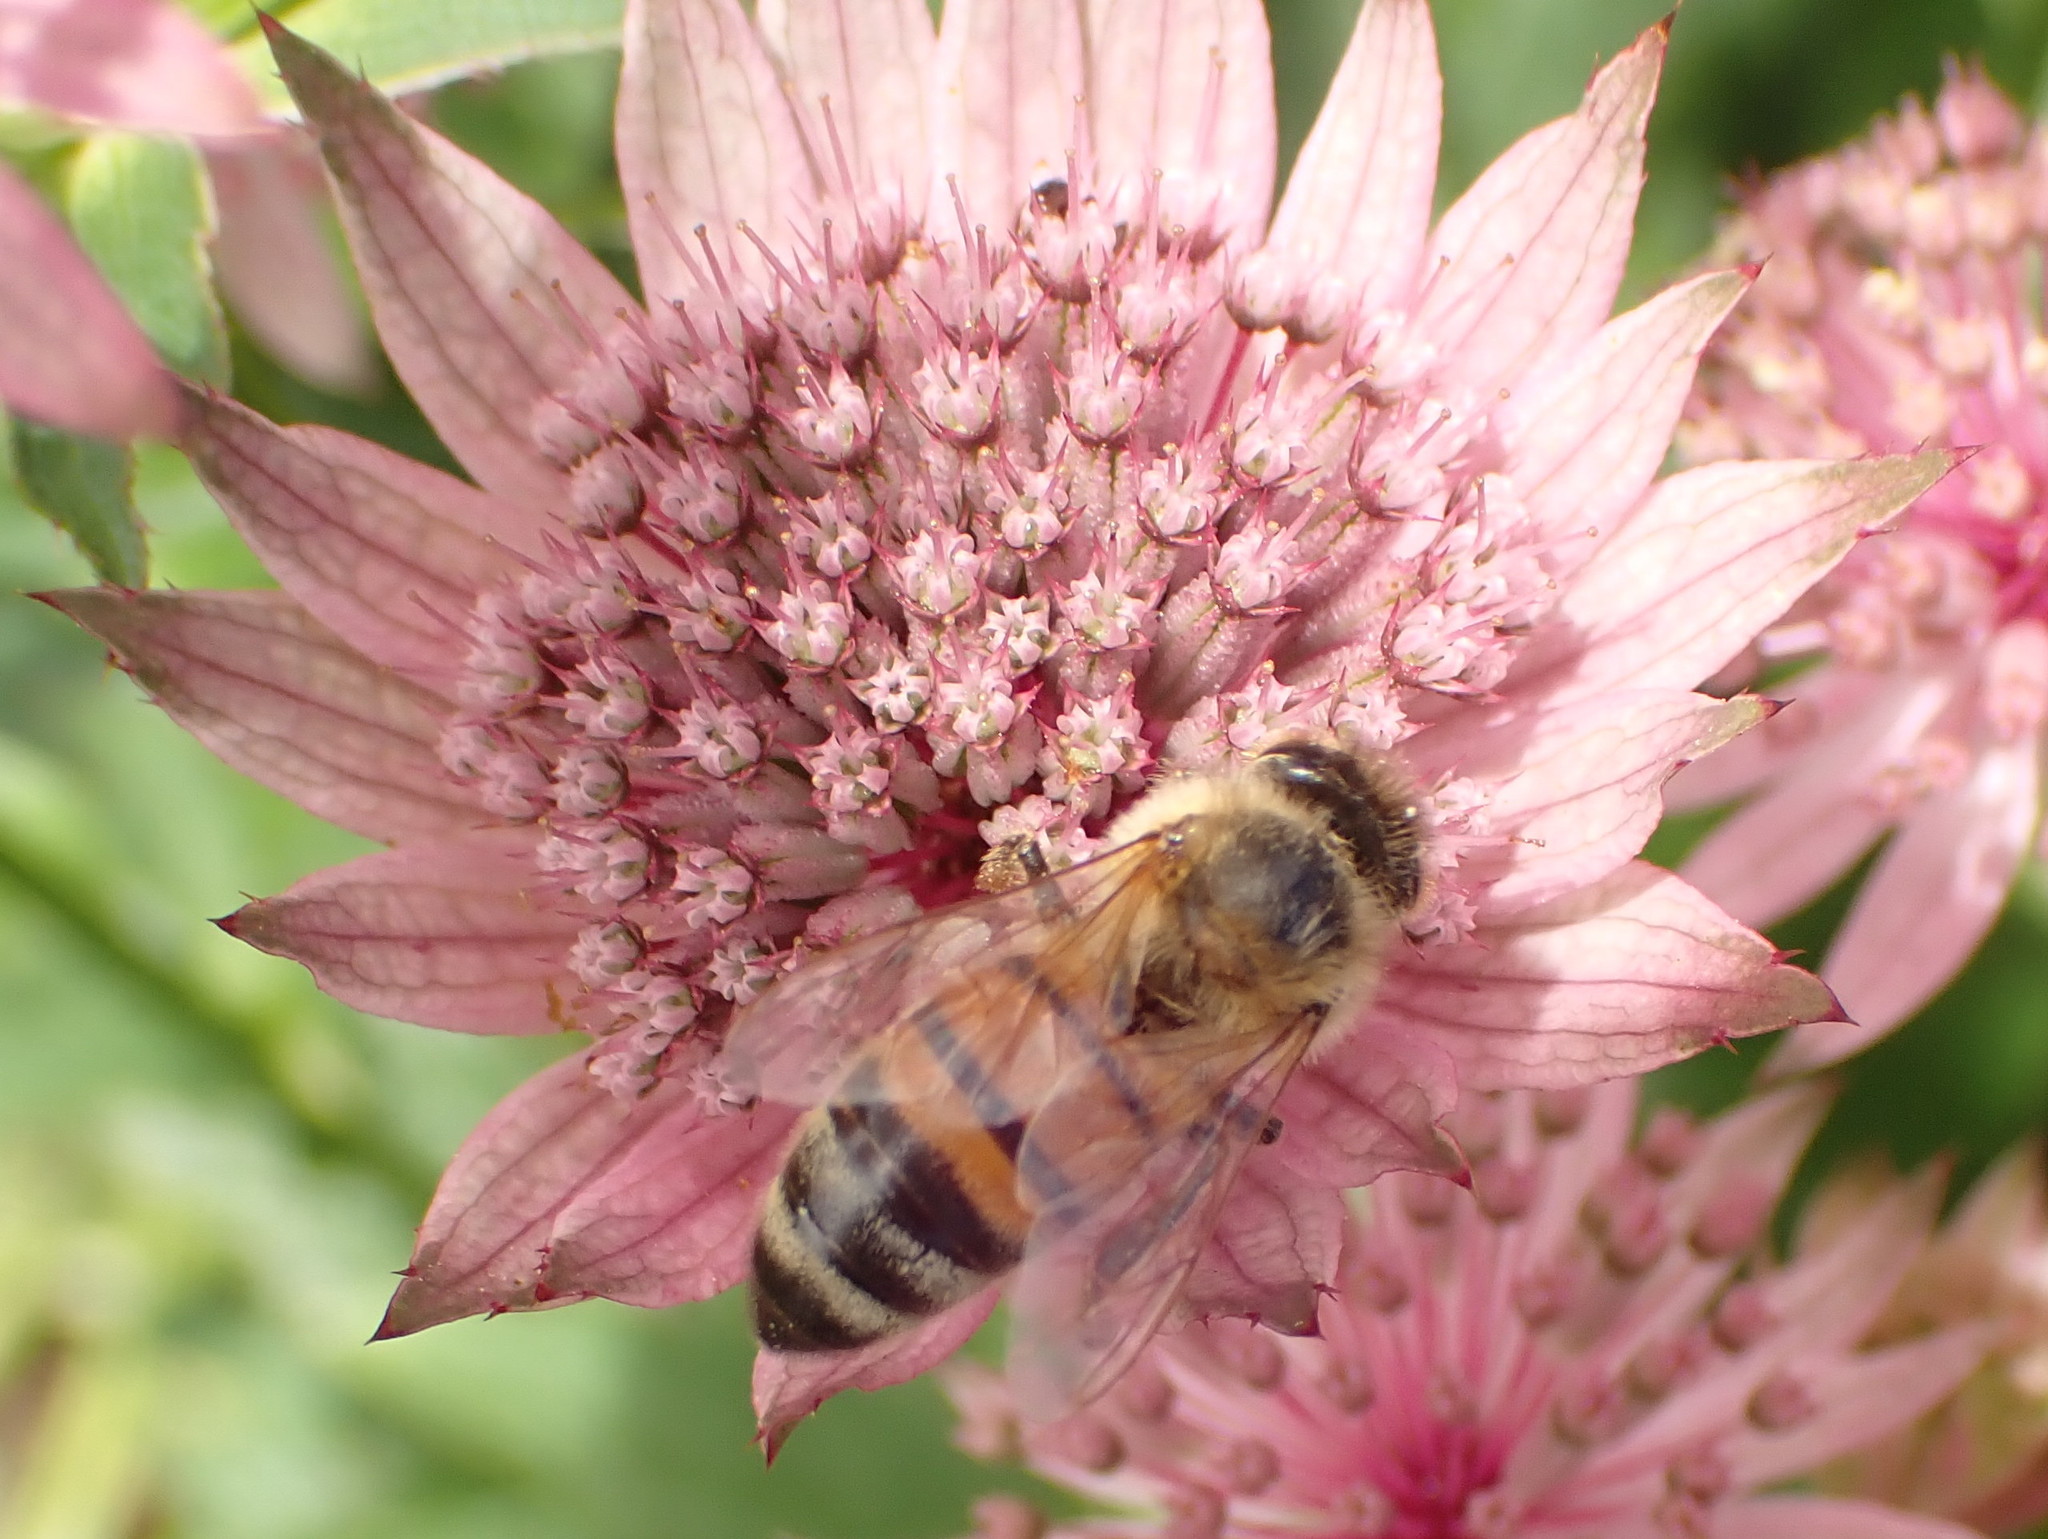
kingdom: Animalia
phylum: Arthropoda
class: Insecta
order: Hymenoptera
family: Apidae
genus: Apis
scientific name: Apis mellifera
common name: Honey bee
